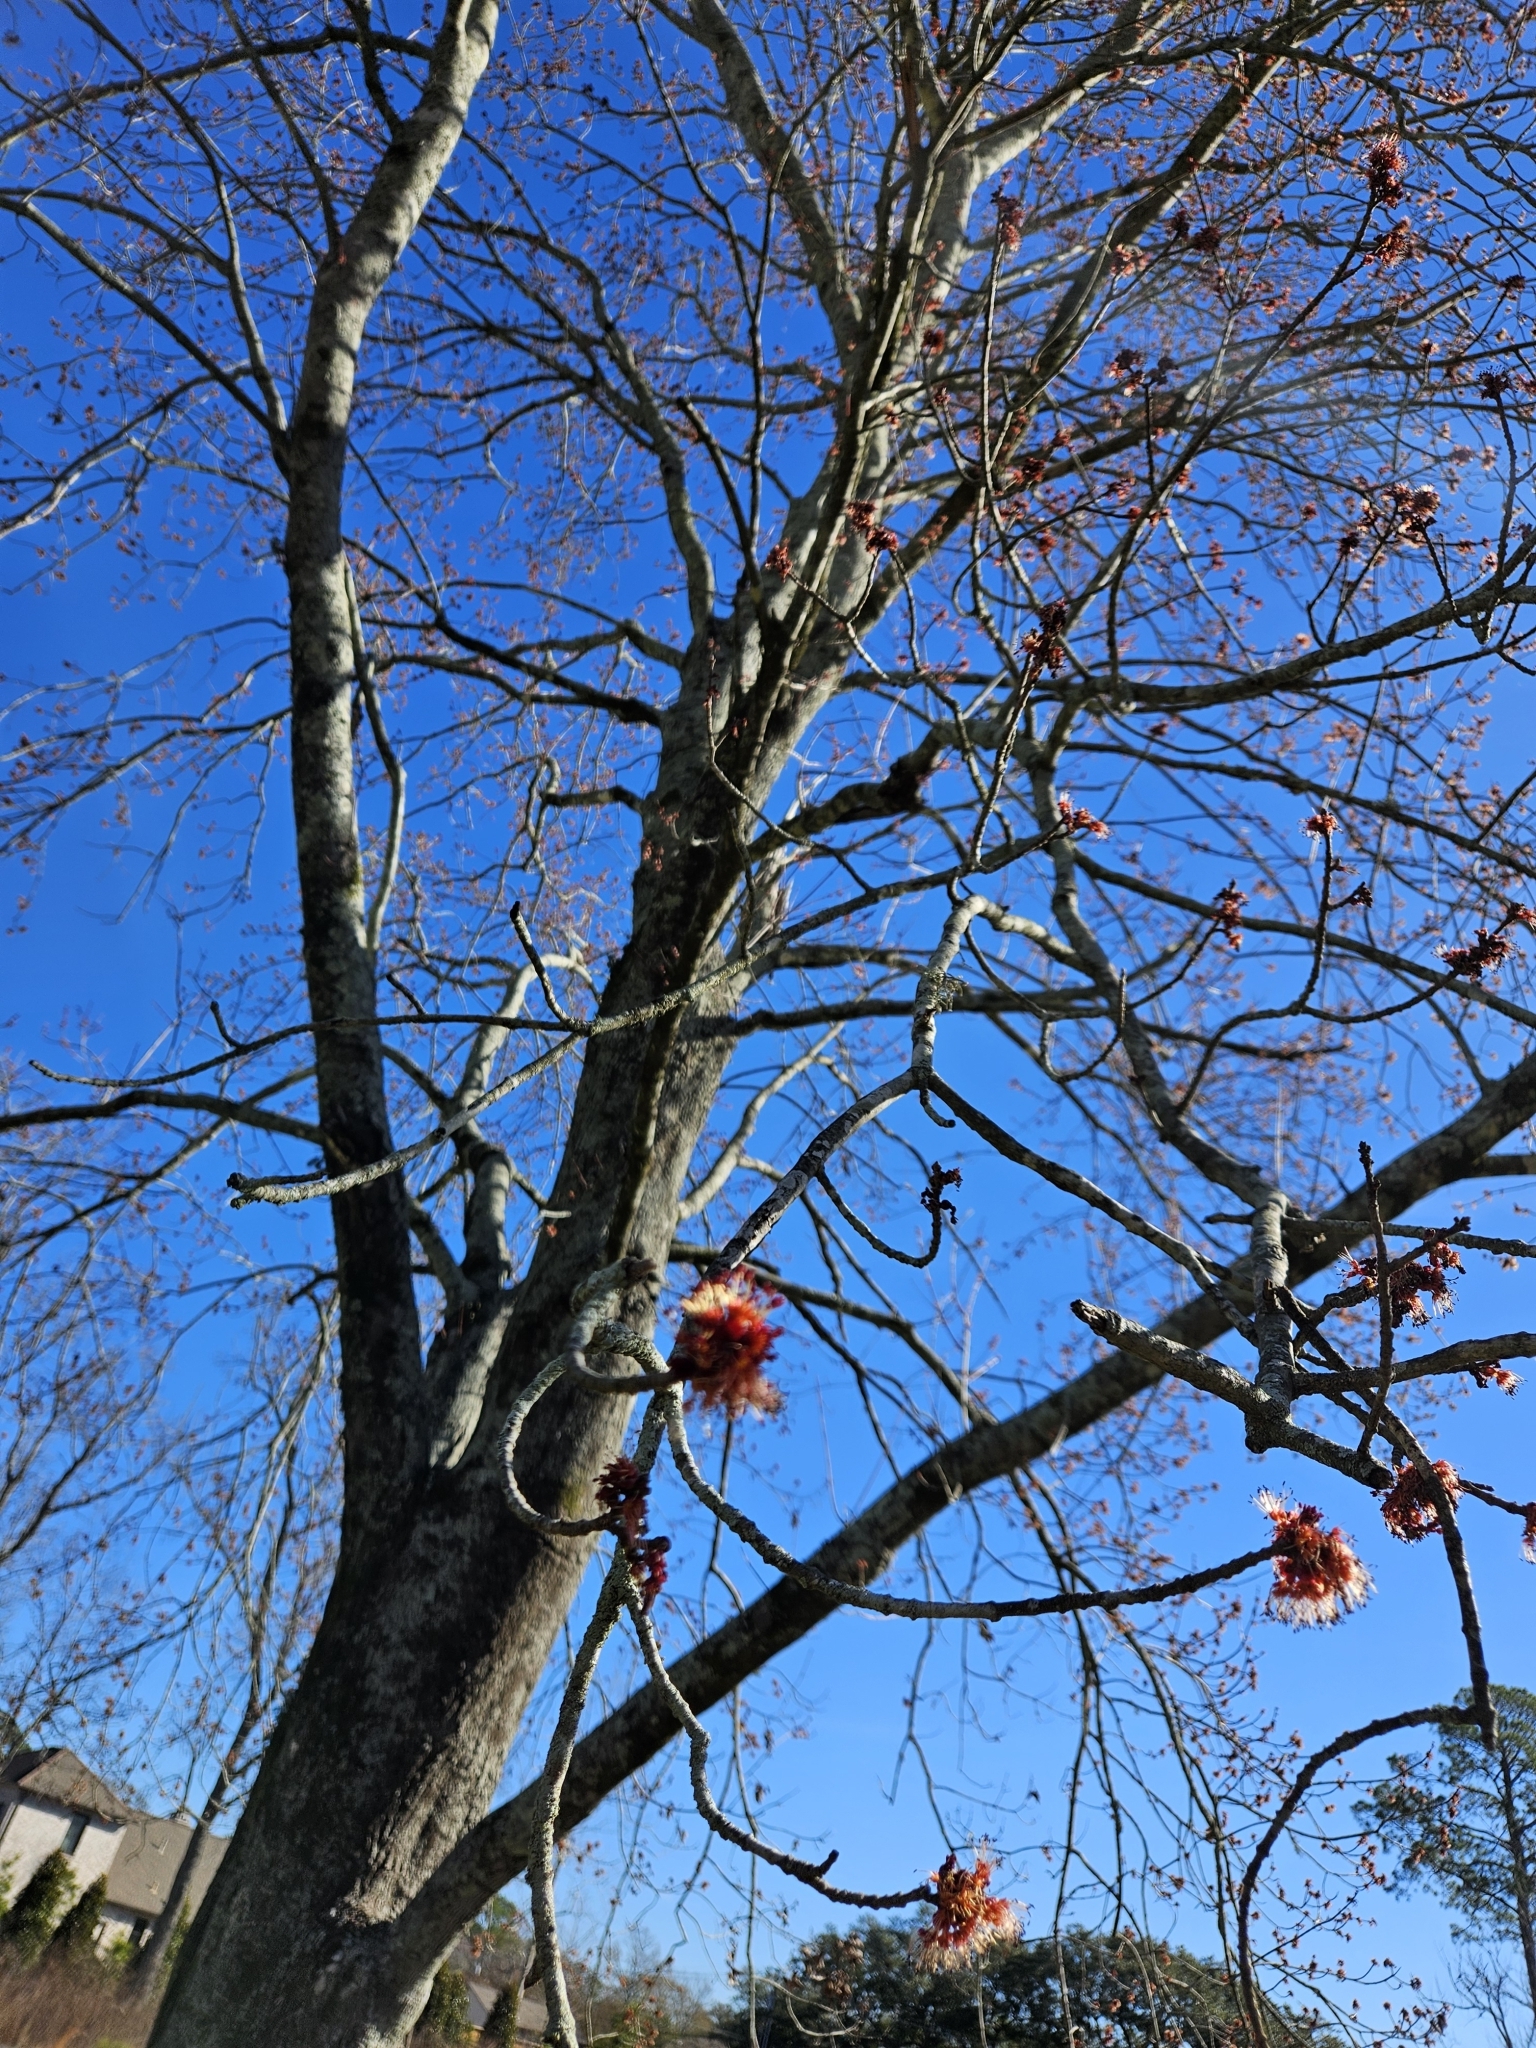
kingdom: Plantae
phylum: Tracheophyta
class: Magnoliopsida
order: Sapindales
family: Sapindaceae
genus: Acer
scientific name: Acer rubrum
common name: Red maple
